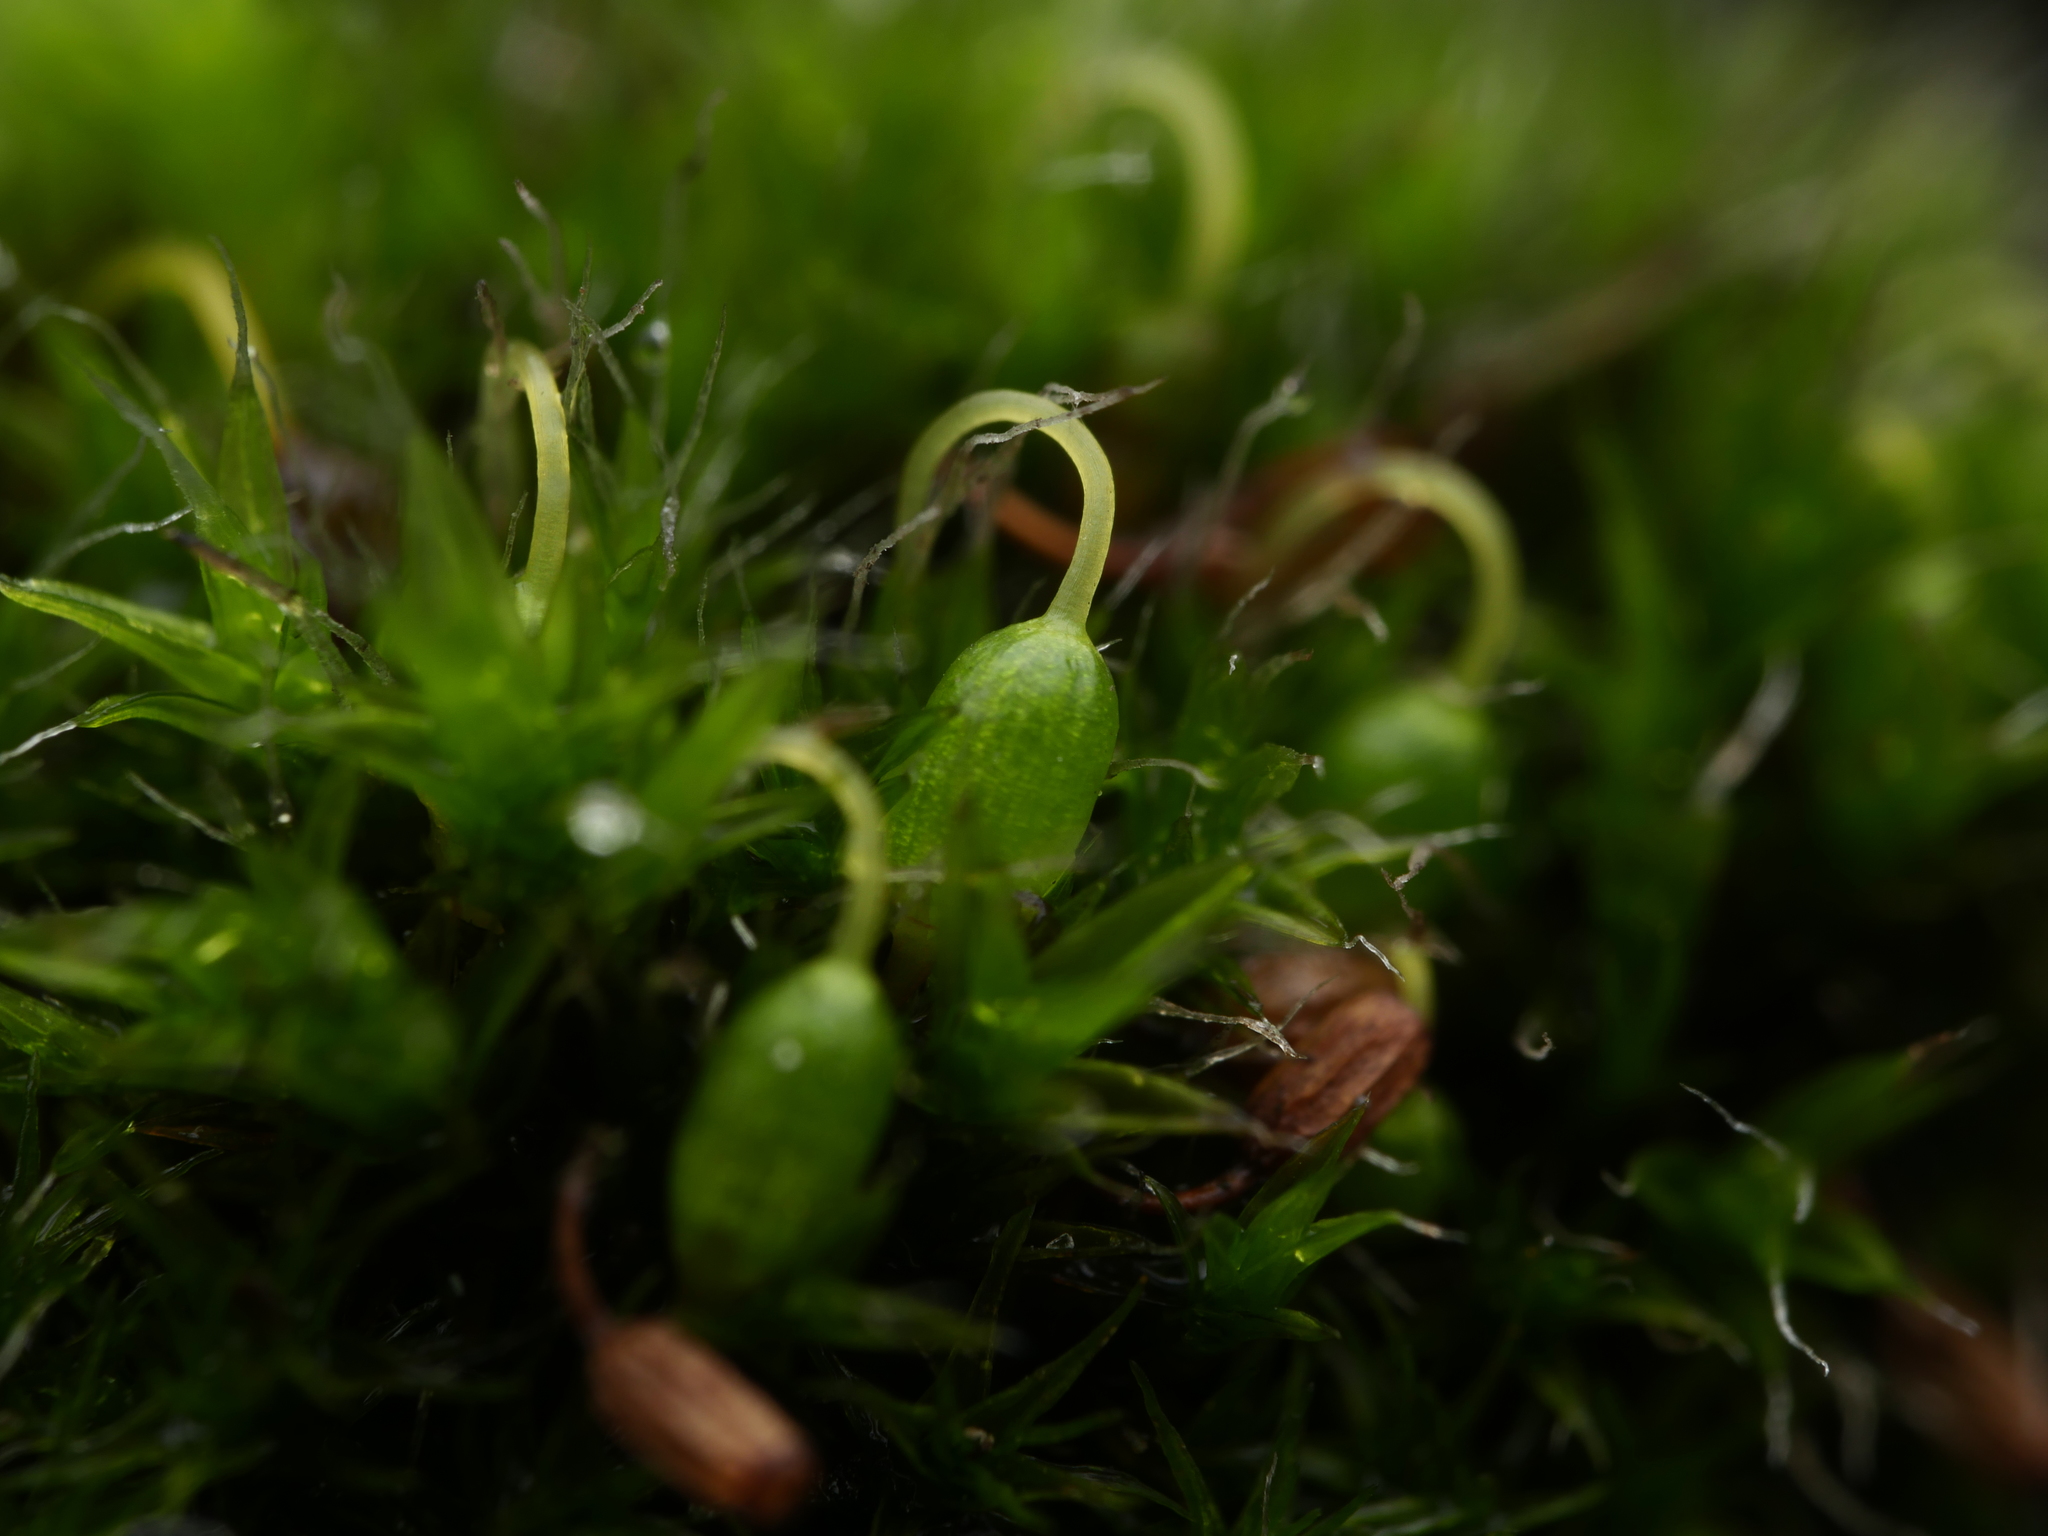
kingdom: Plantae
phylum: Bryophyta
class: Bryopsida
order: Grimmiales
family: Grimmiaceae
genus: Grimmia
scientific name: Grimmia pulvinata
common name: Grey-cushioned grimmia
